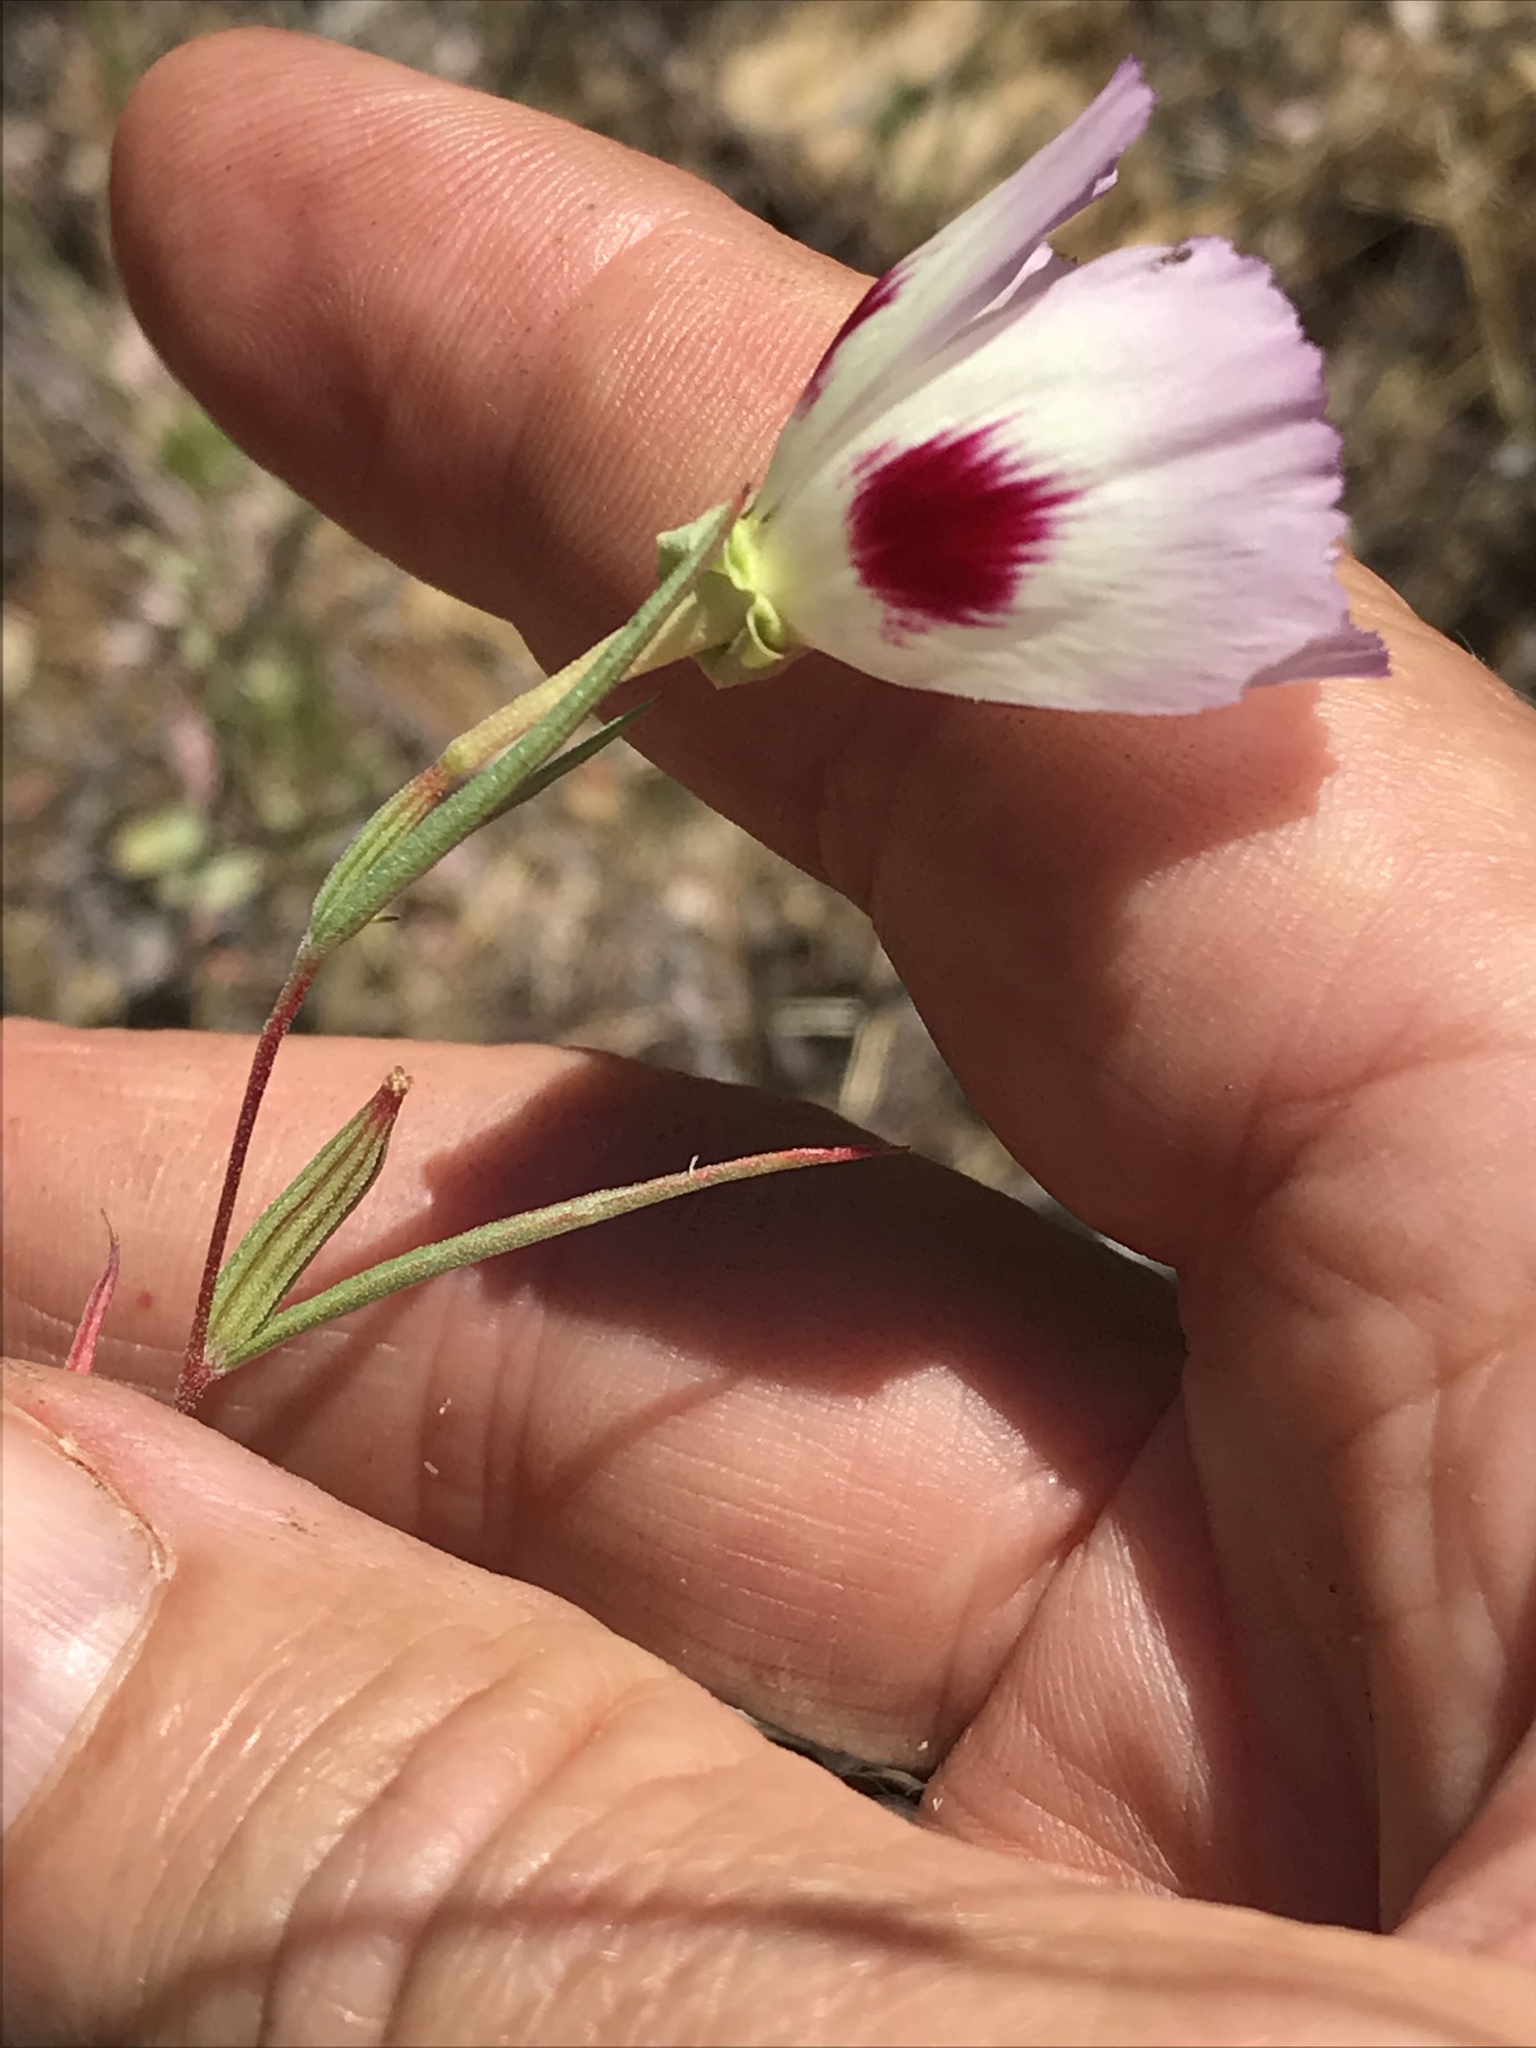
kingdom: Plantae
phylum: Tracheophyta
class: Magnoliopsida
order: Myrtales
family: Onagraceae
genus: Clarkia
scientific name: Clarkia speciosa
